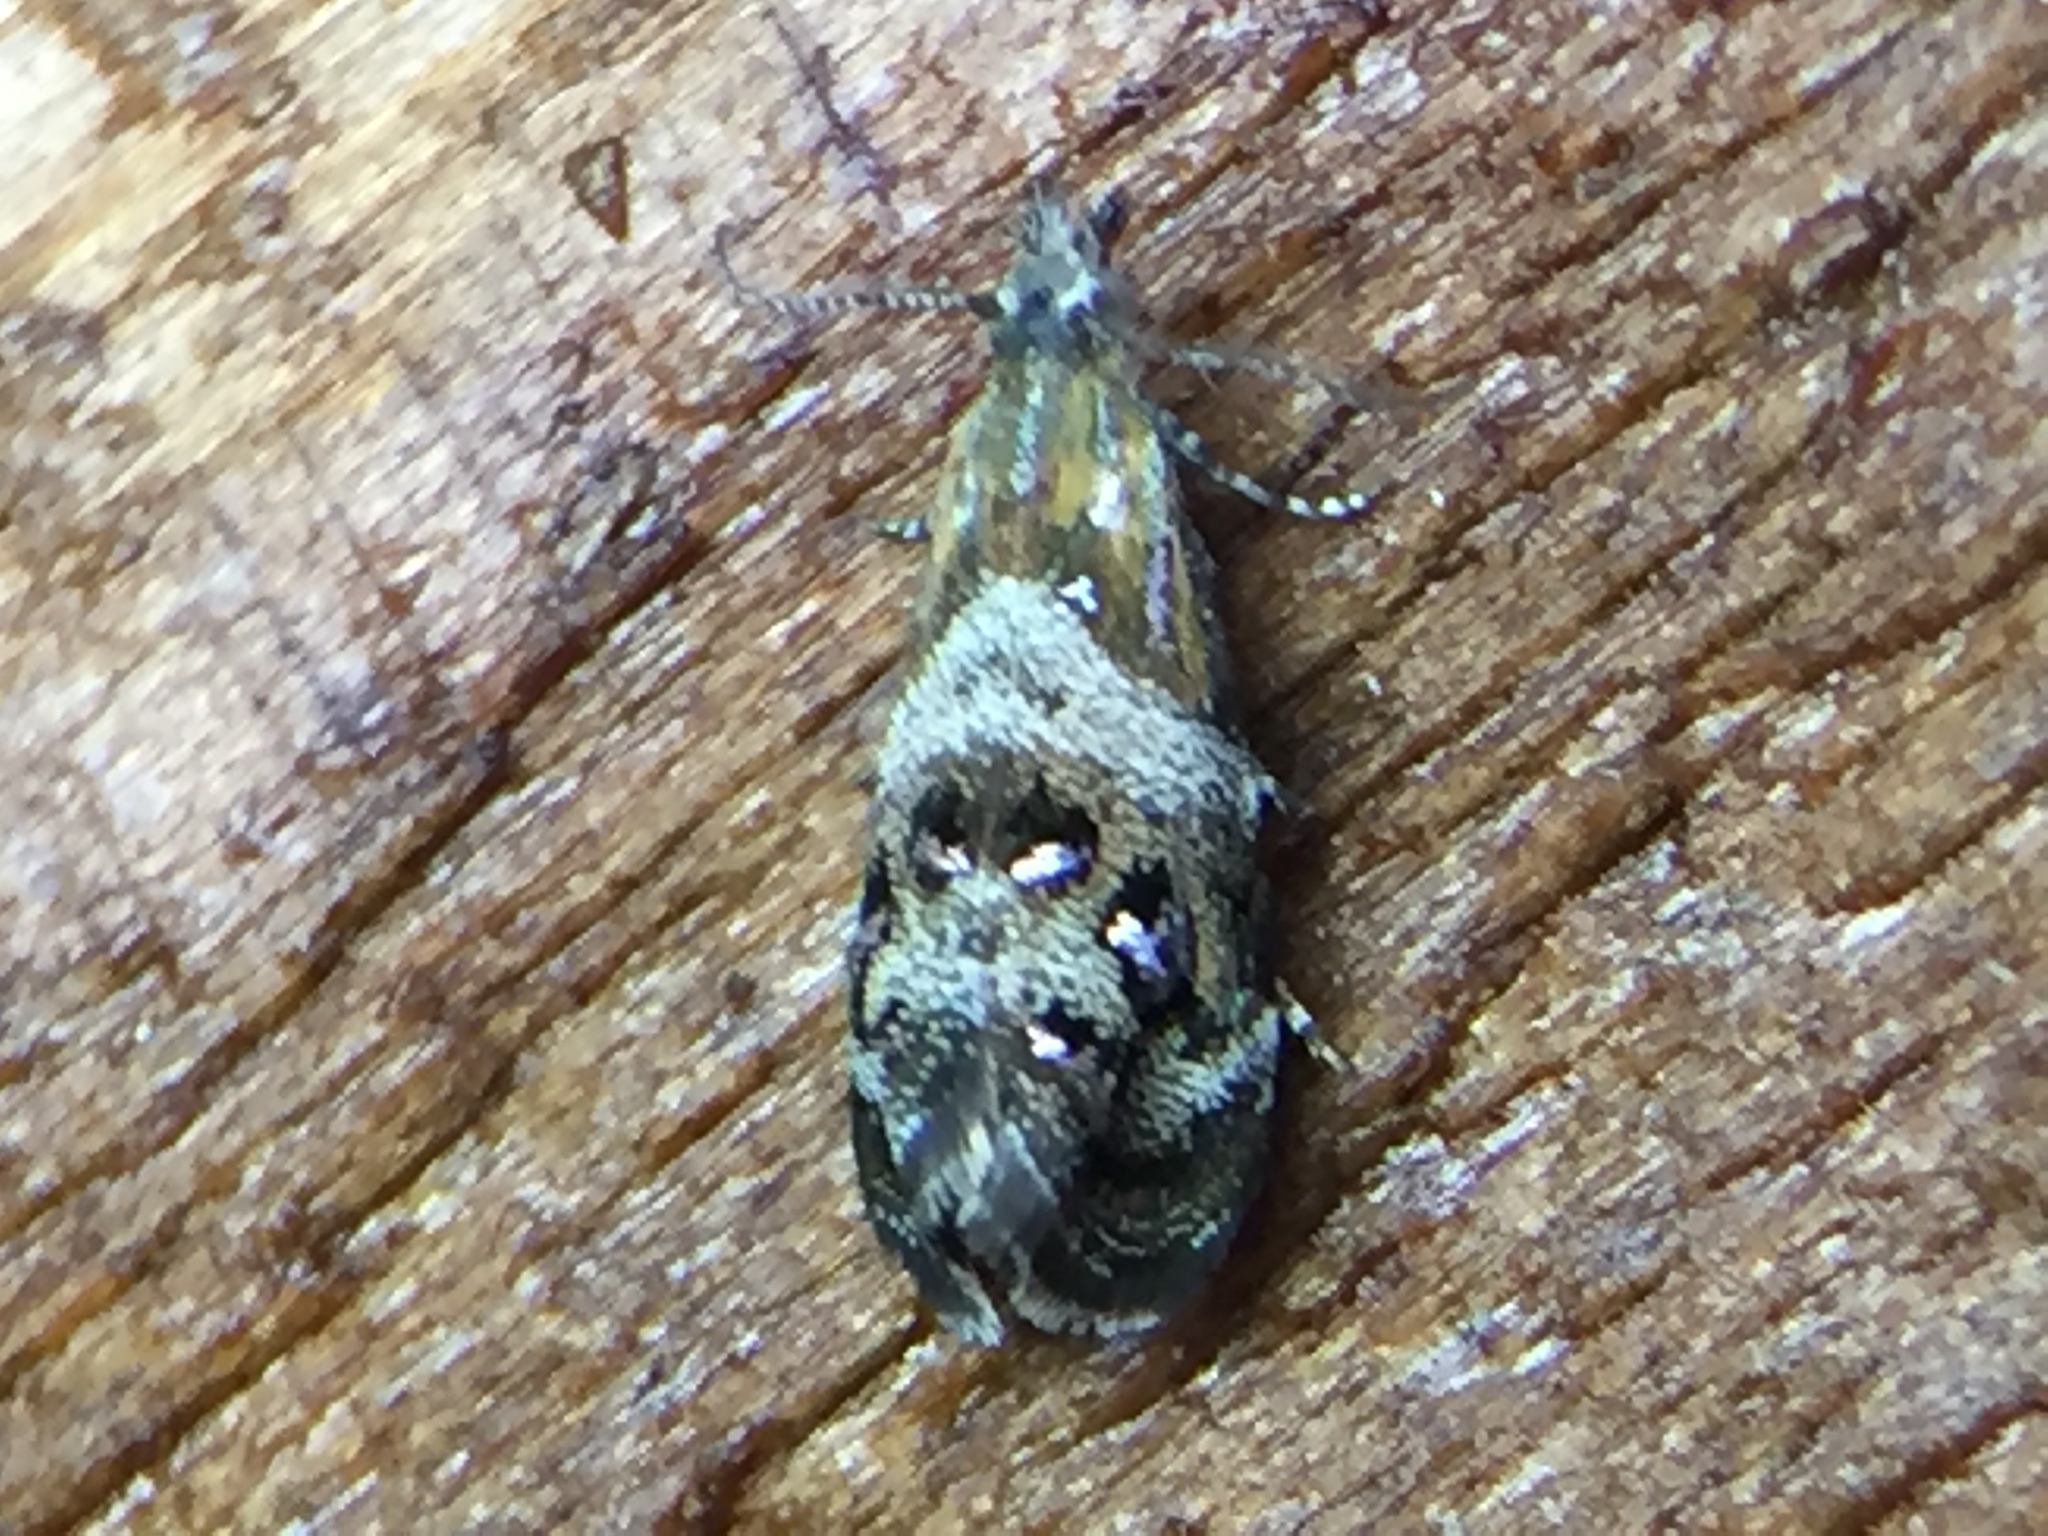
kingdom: Animalia
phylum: Arthropoda
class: Insecta
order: Lepidoptera
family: Choreutidae
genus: Tebenna
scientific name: Tebenna micalis
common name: Vagrant twitcher
